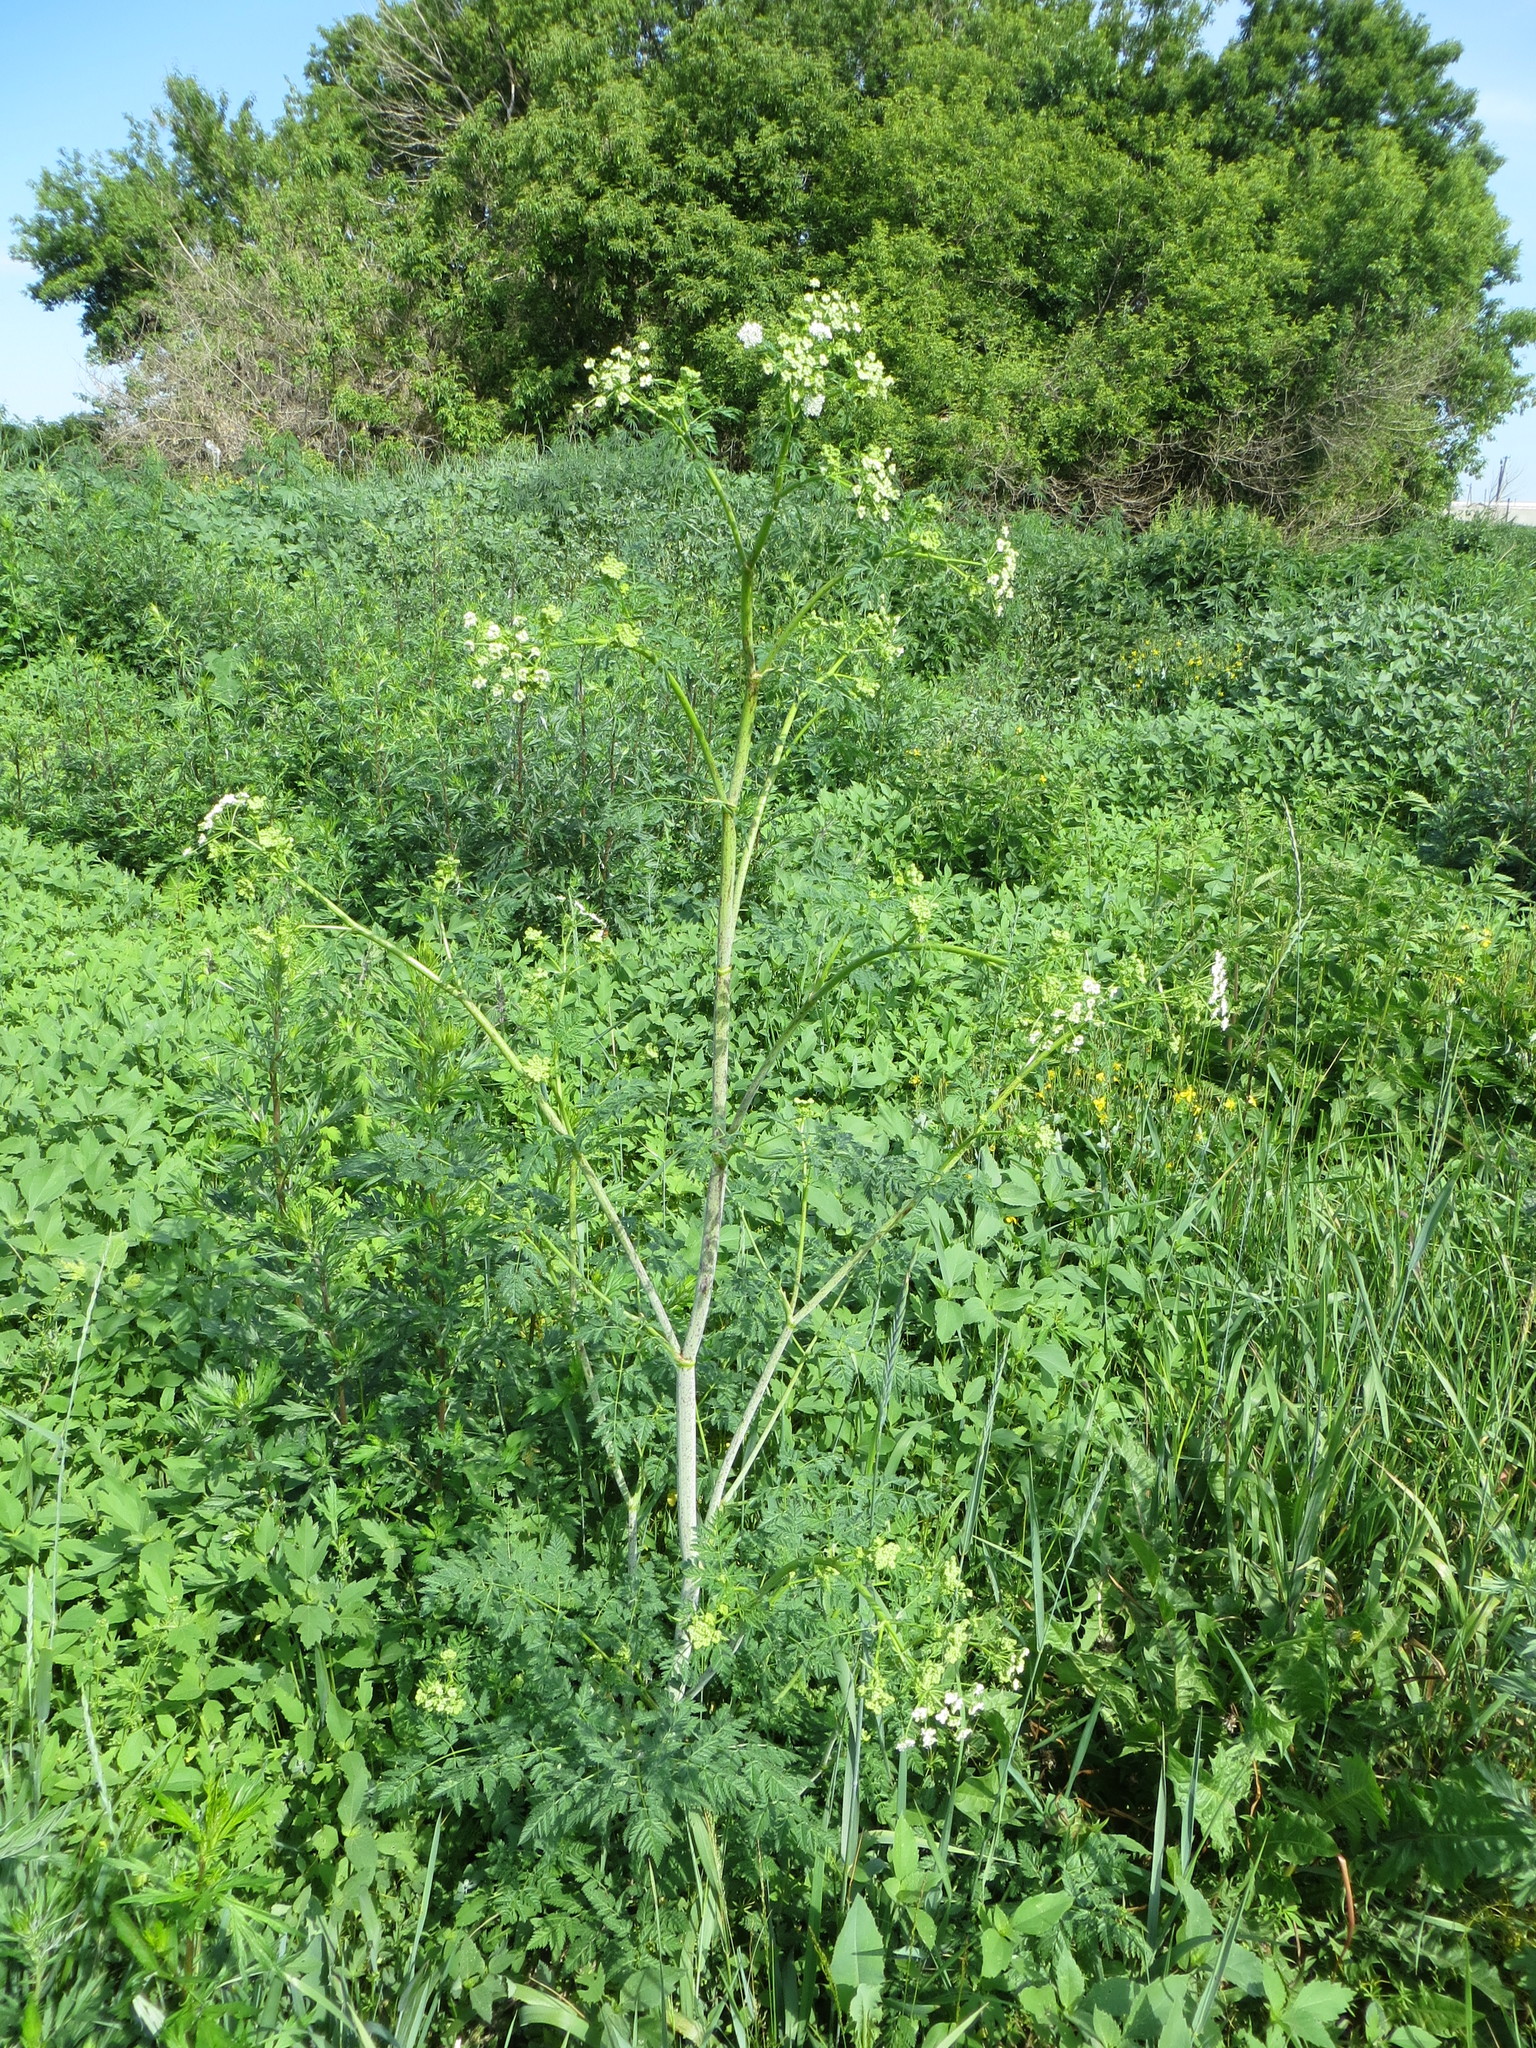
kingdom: Plantae
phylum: Tracheophyta
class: Magnoliopsida
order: Apiales
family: Apiaceae
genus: Conium
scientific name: Conium maculatum
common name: Hemlock
